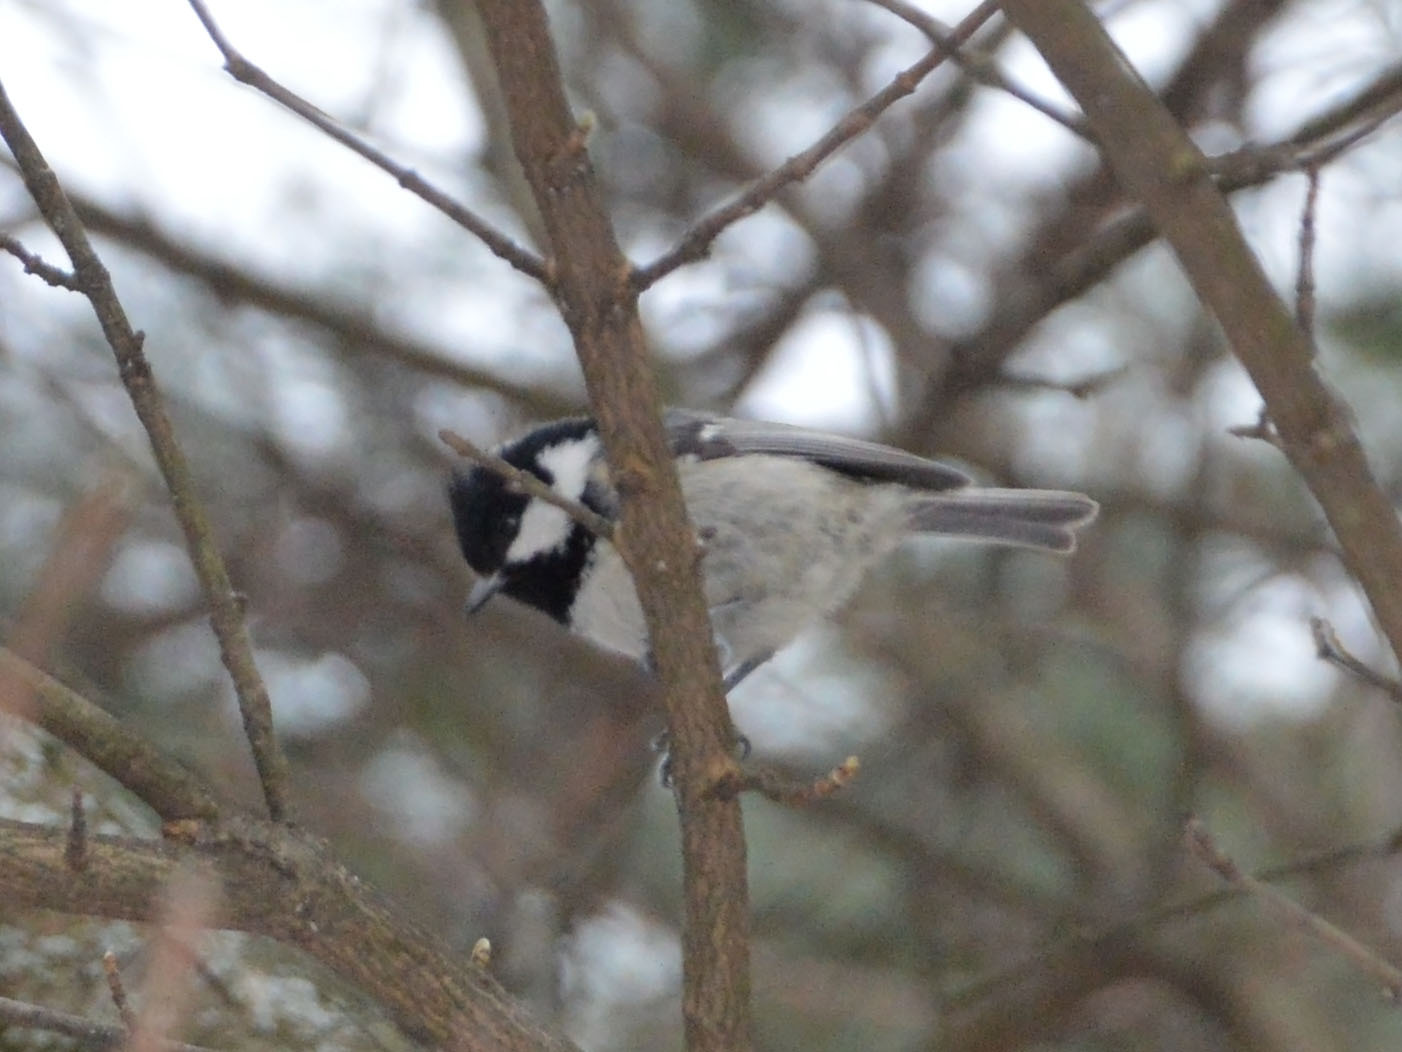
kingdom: Animalia
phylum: Chordata
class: Aves
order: Passeriformes
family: Paridae
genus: Periparus
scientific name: Periparus ater
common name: Coal tit
